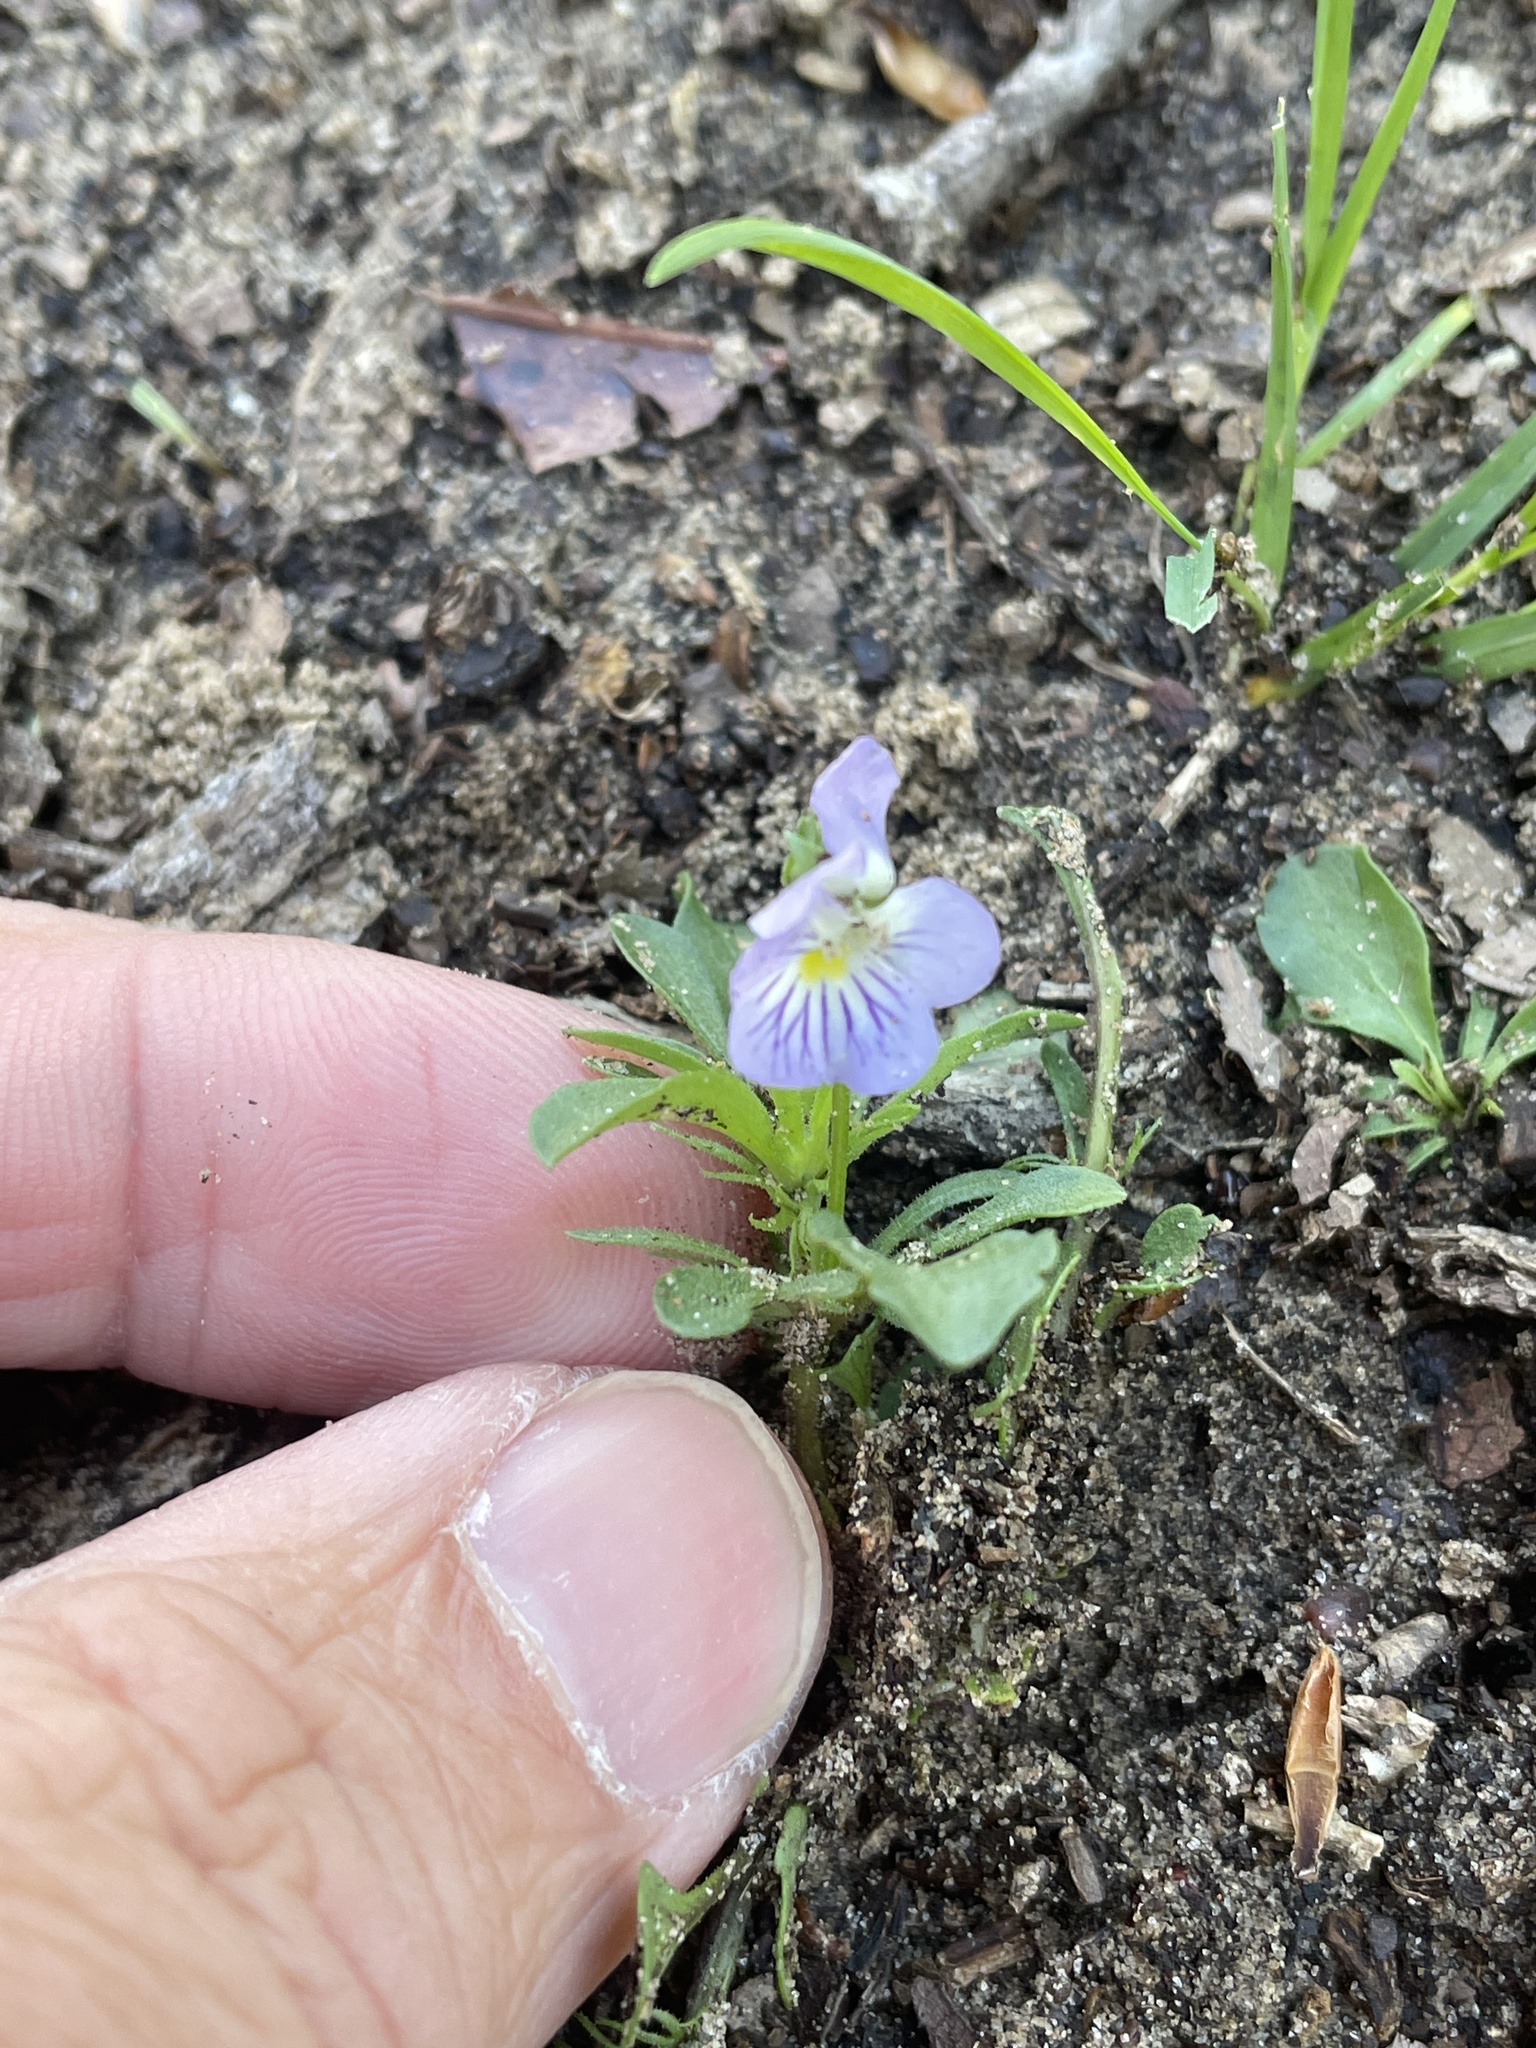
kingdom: Plantae
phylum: Tracheophyta
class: Magnoliopsida
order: Malpighiales
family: Violaceae
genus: Viola
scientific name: Viola rafinesquei
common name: American field pansy
